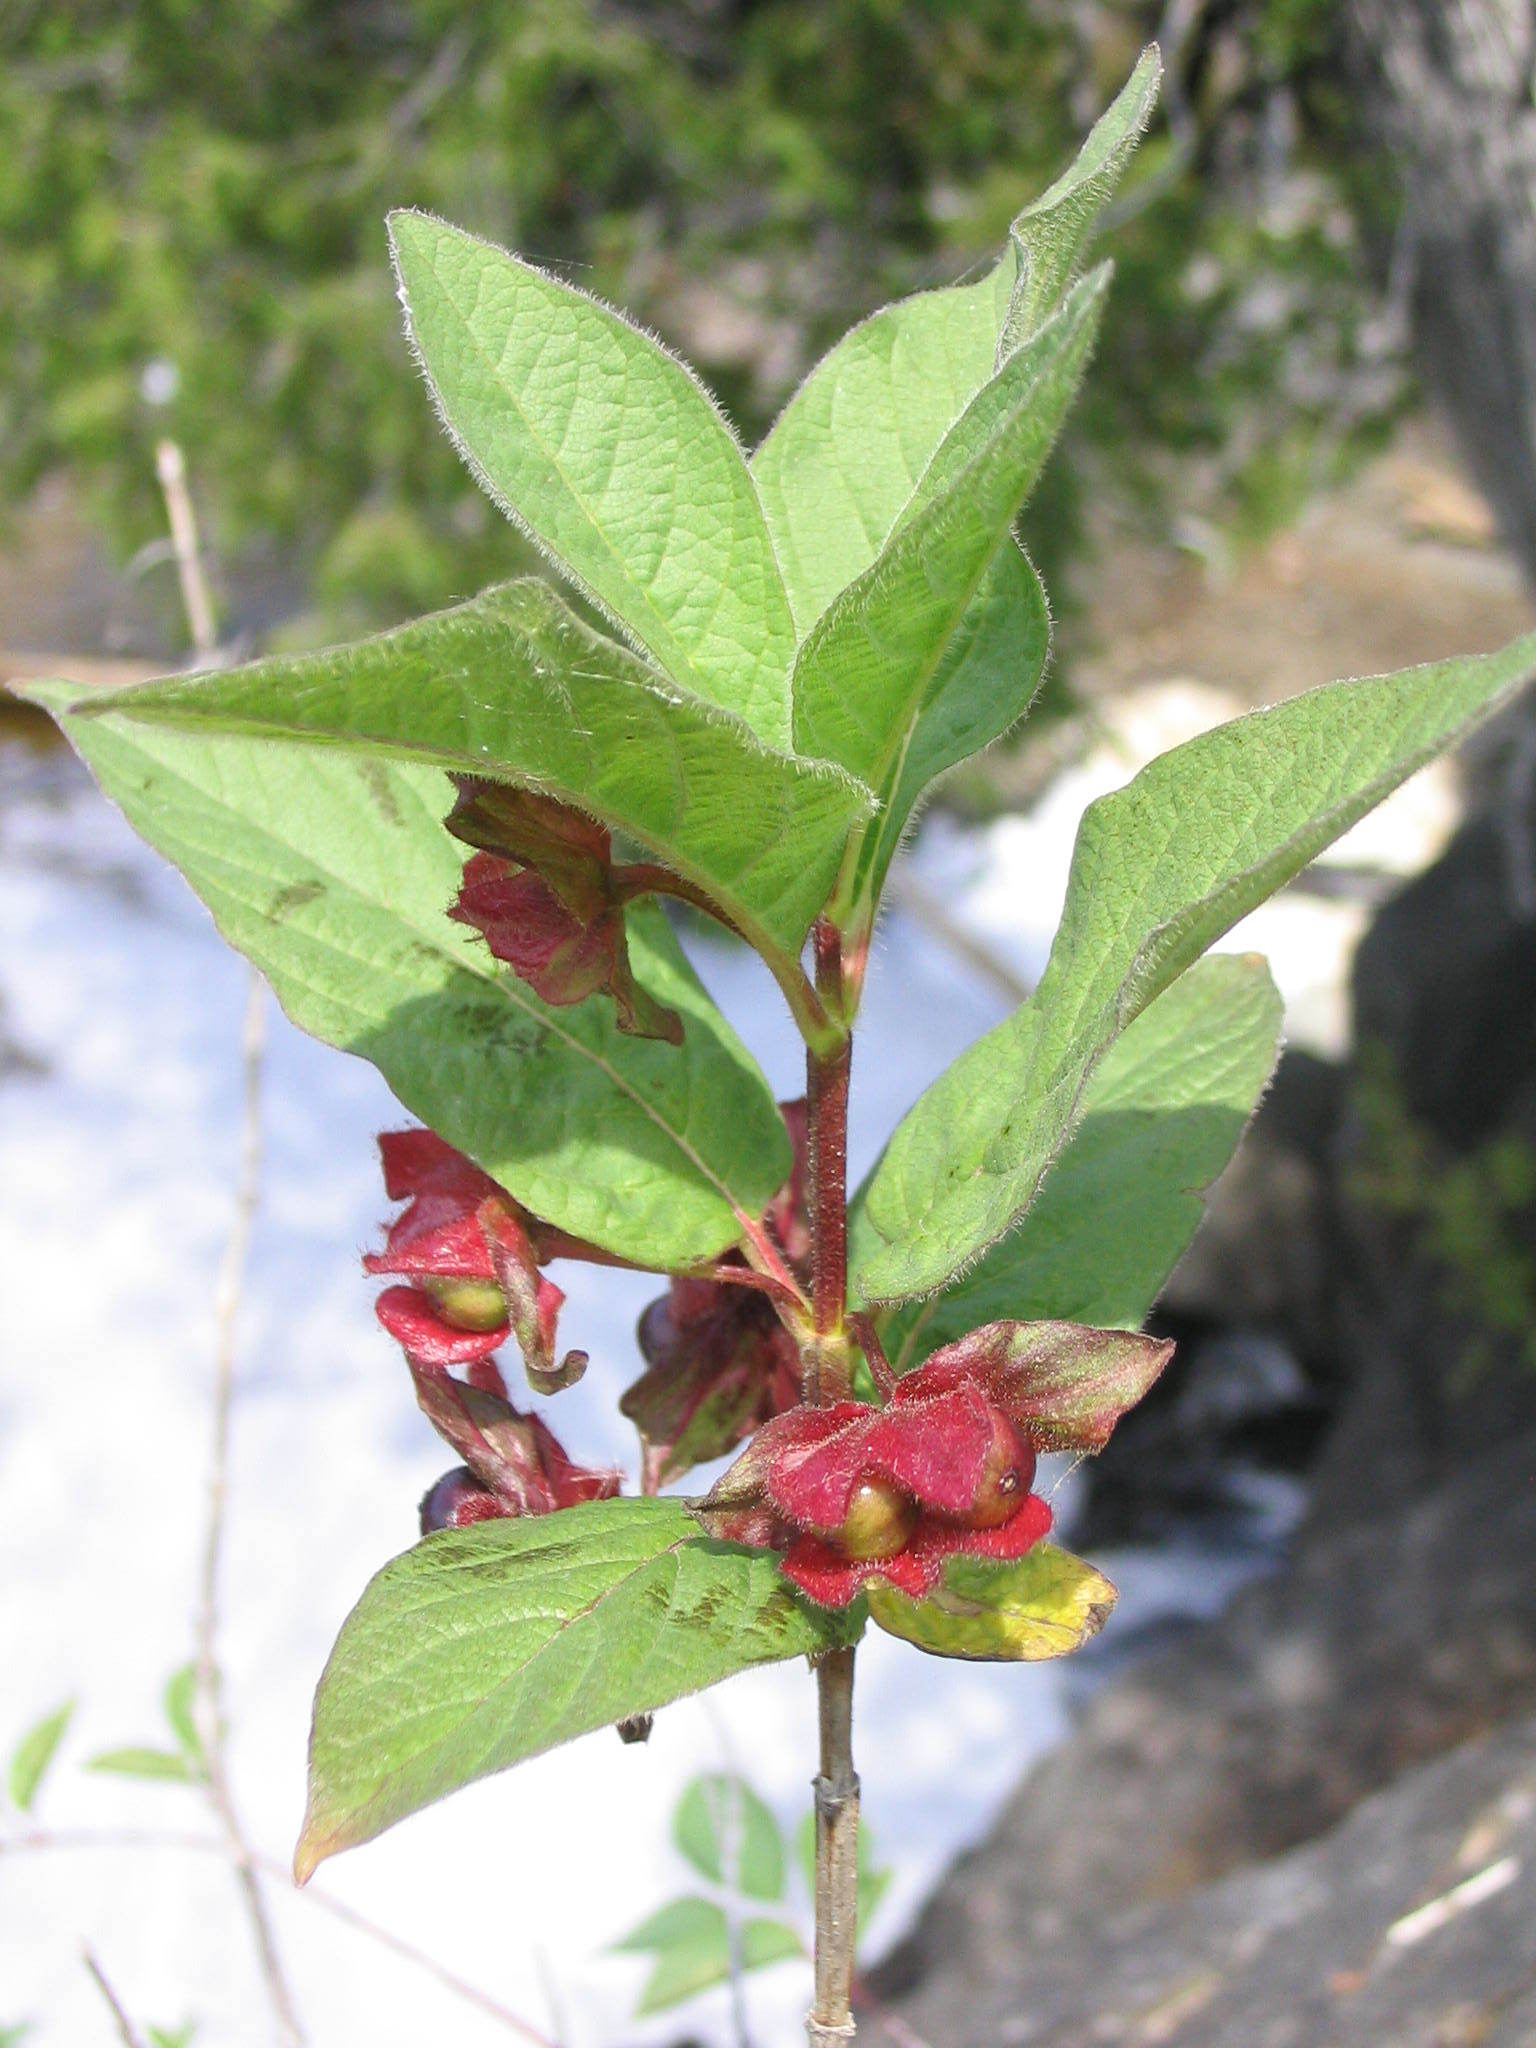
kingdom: Plantae
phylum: Tracheophyta
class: Magnoliopsida
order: Dipsacales
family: Caprifoliaceae
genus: Lonicera
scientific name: Lonicera involucrata
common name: Californian honeysuckle
